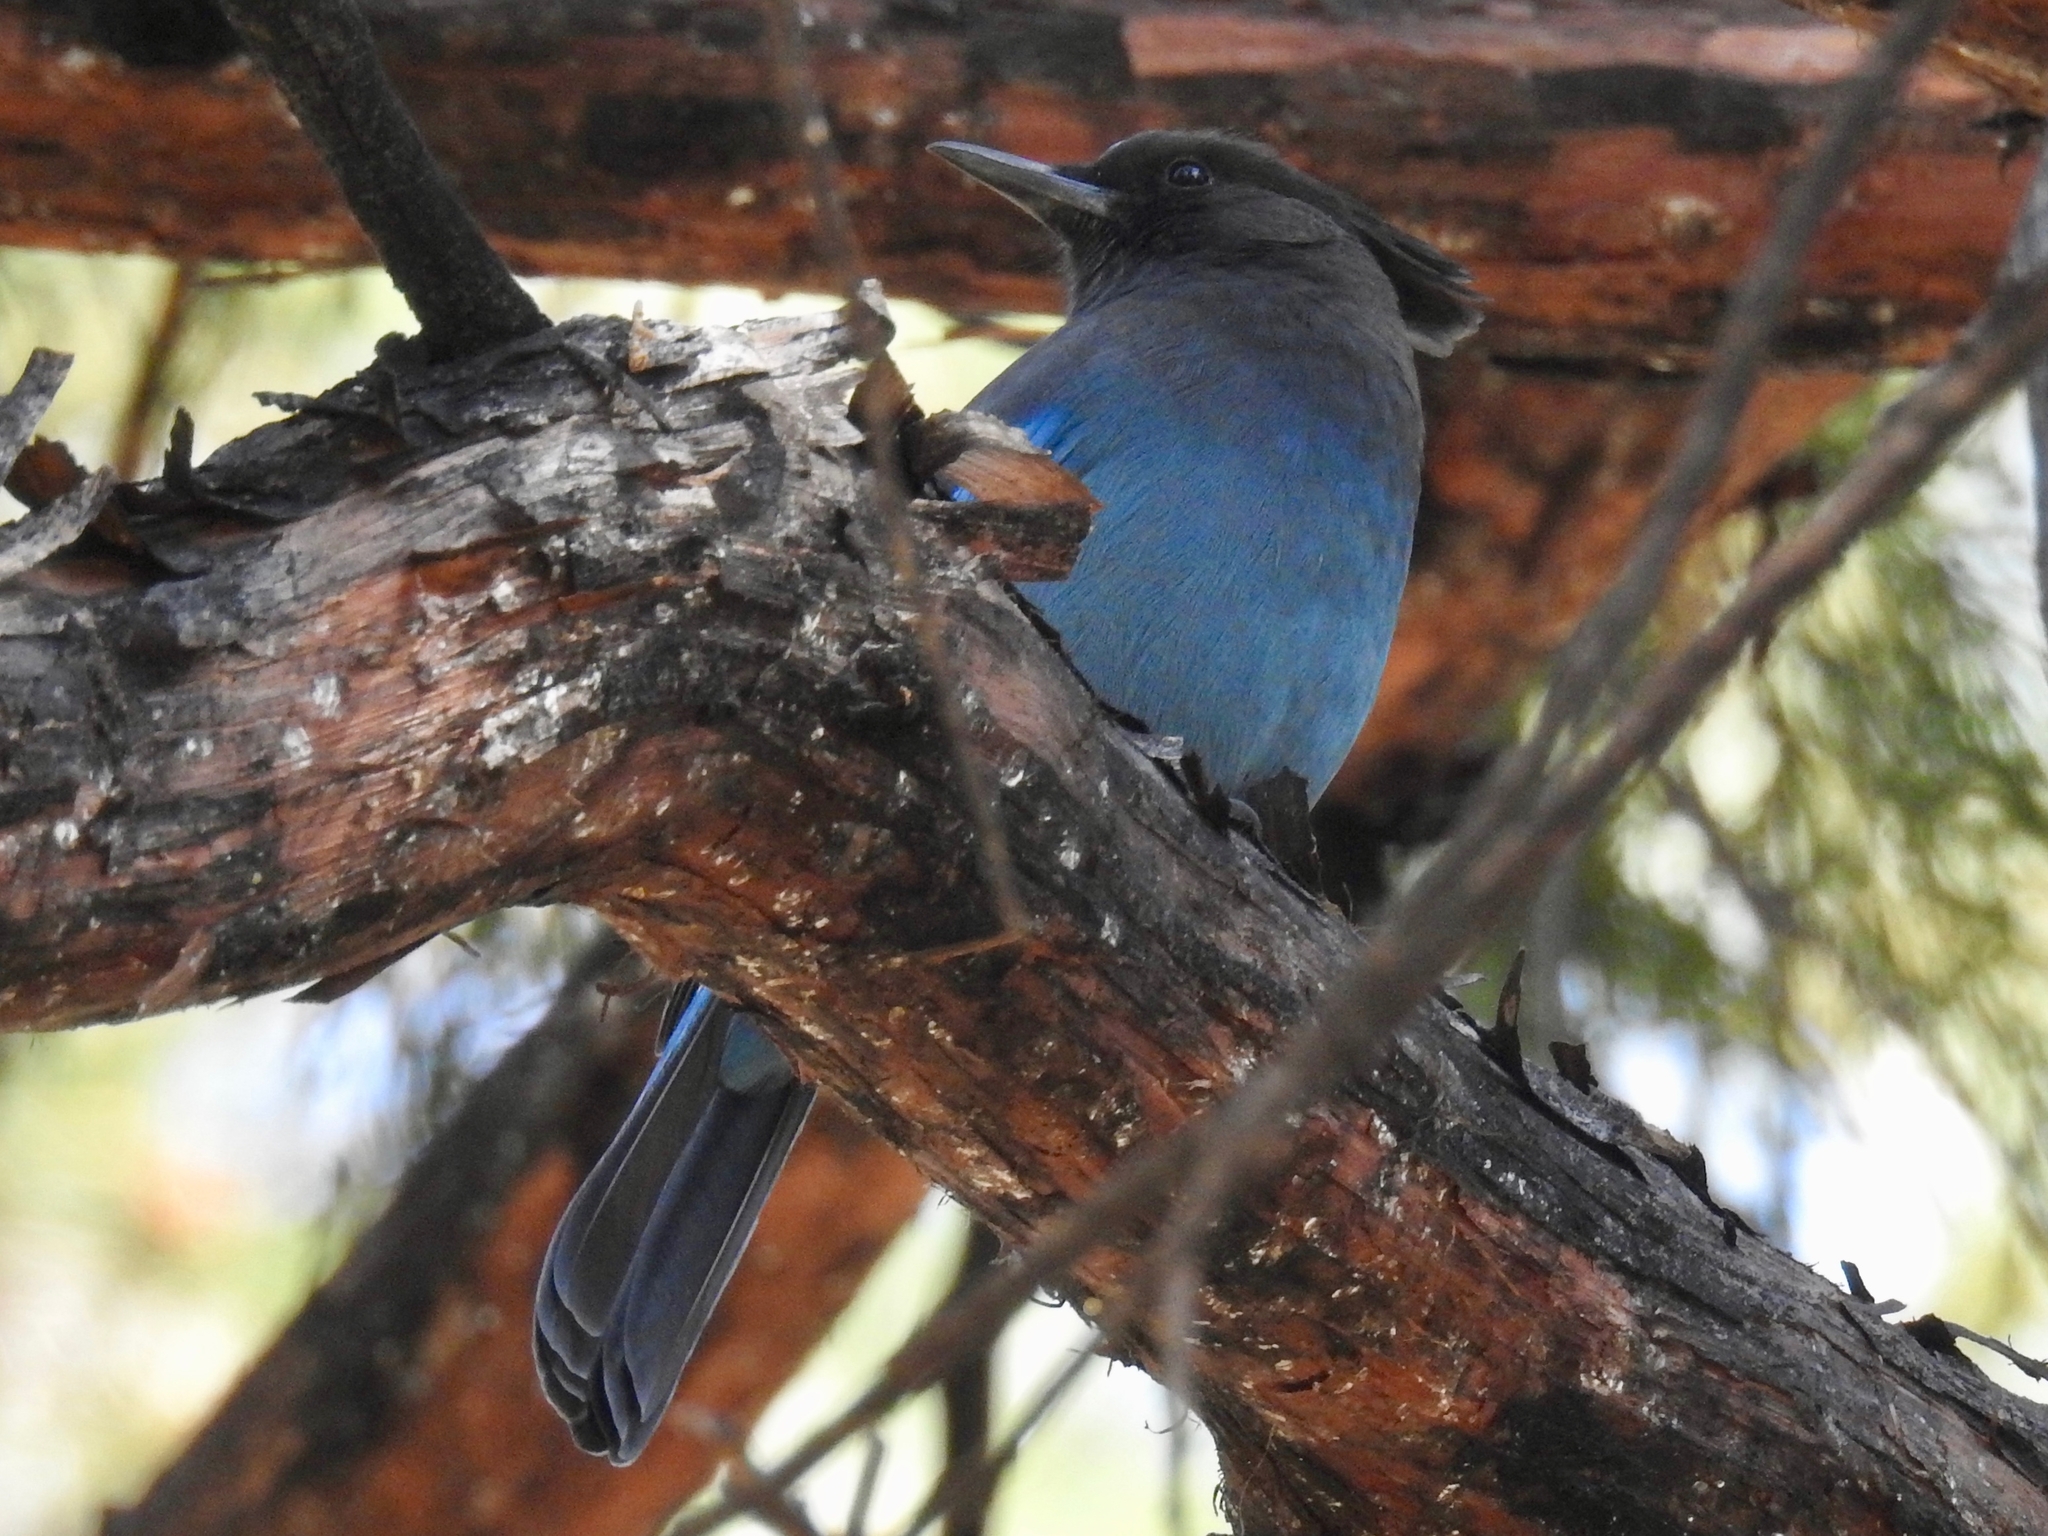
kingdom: Animalia
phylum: Chordata
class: Aves
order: Passeriformes
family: Corvidae
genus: Cyanocitta
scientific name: Cyanocitta stelleri
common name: Steller's jay
